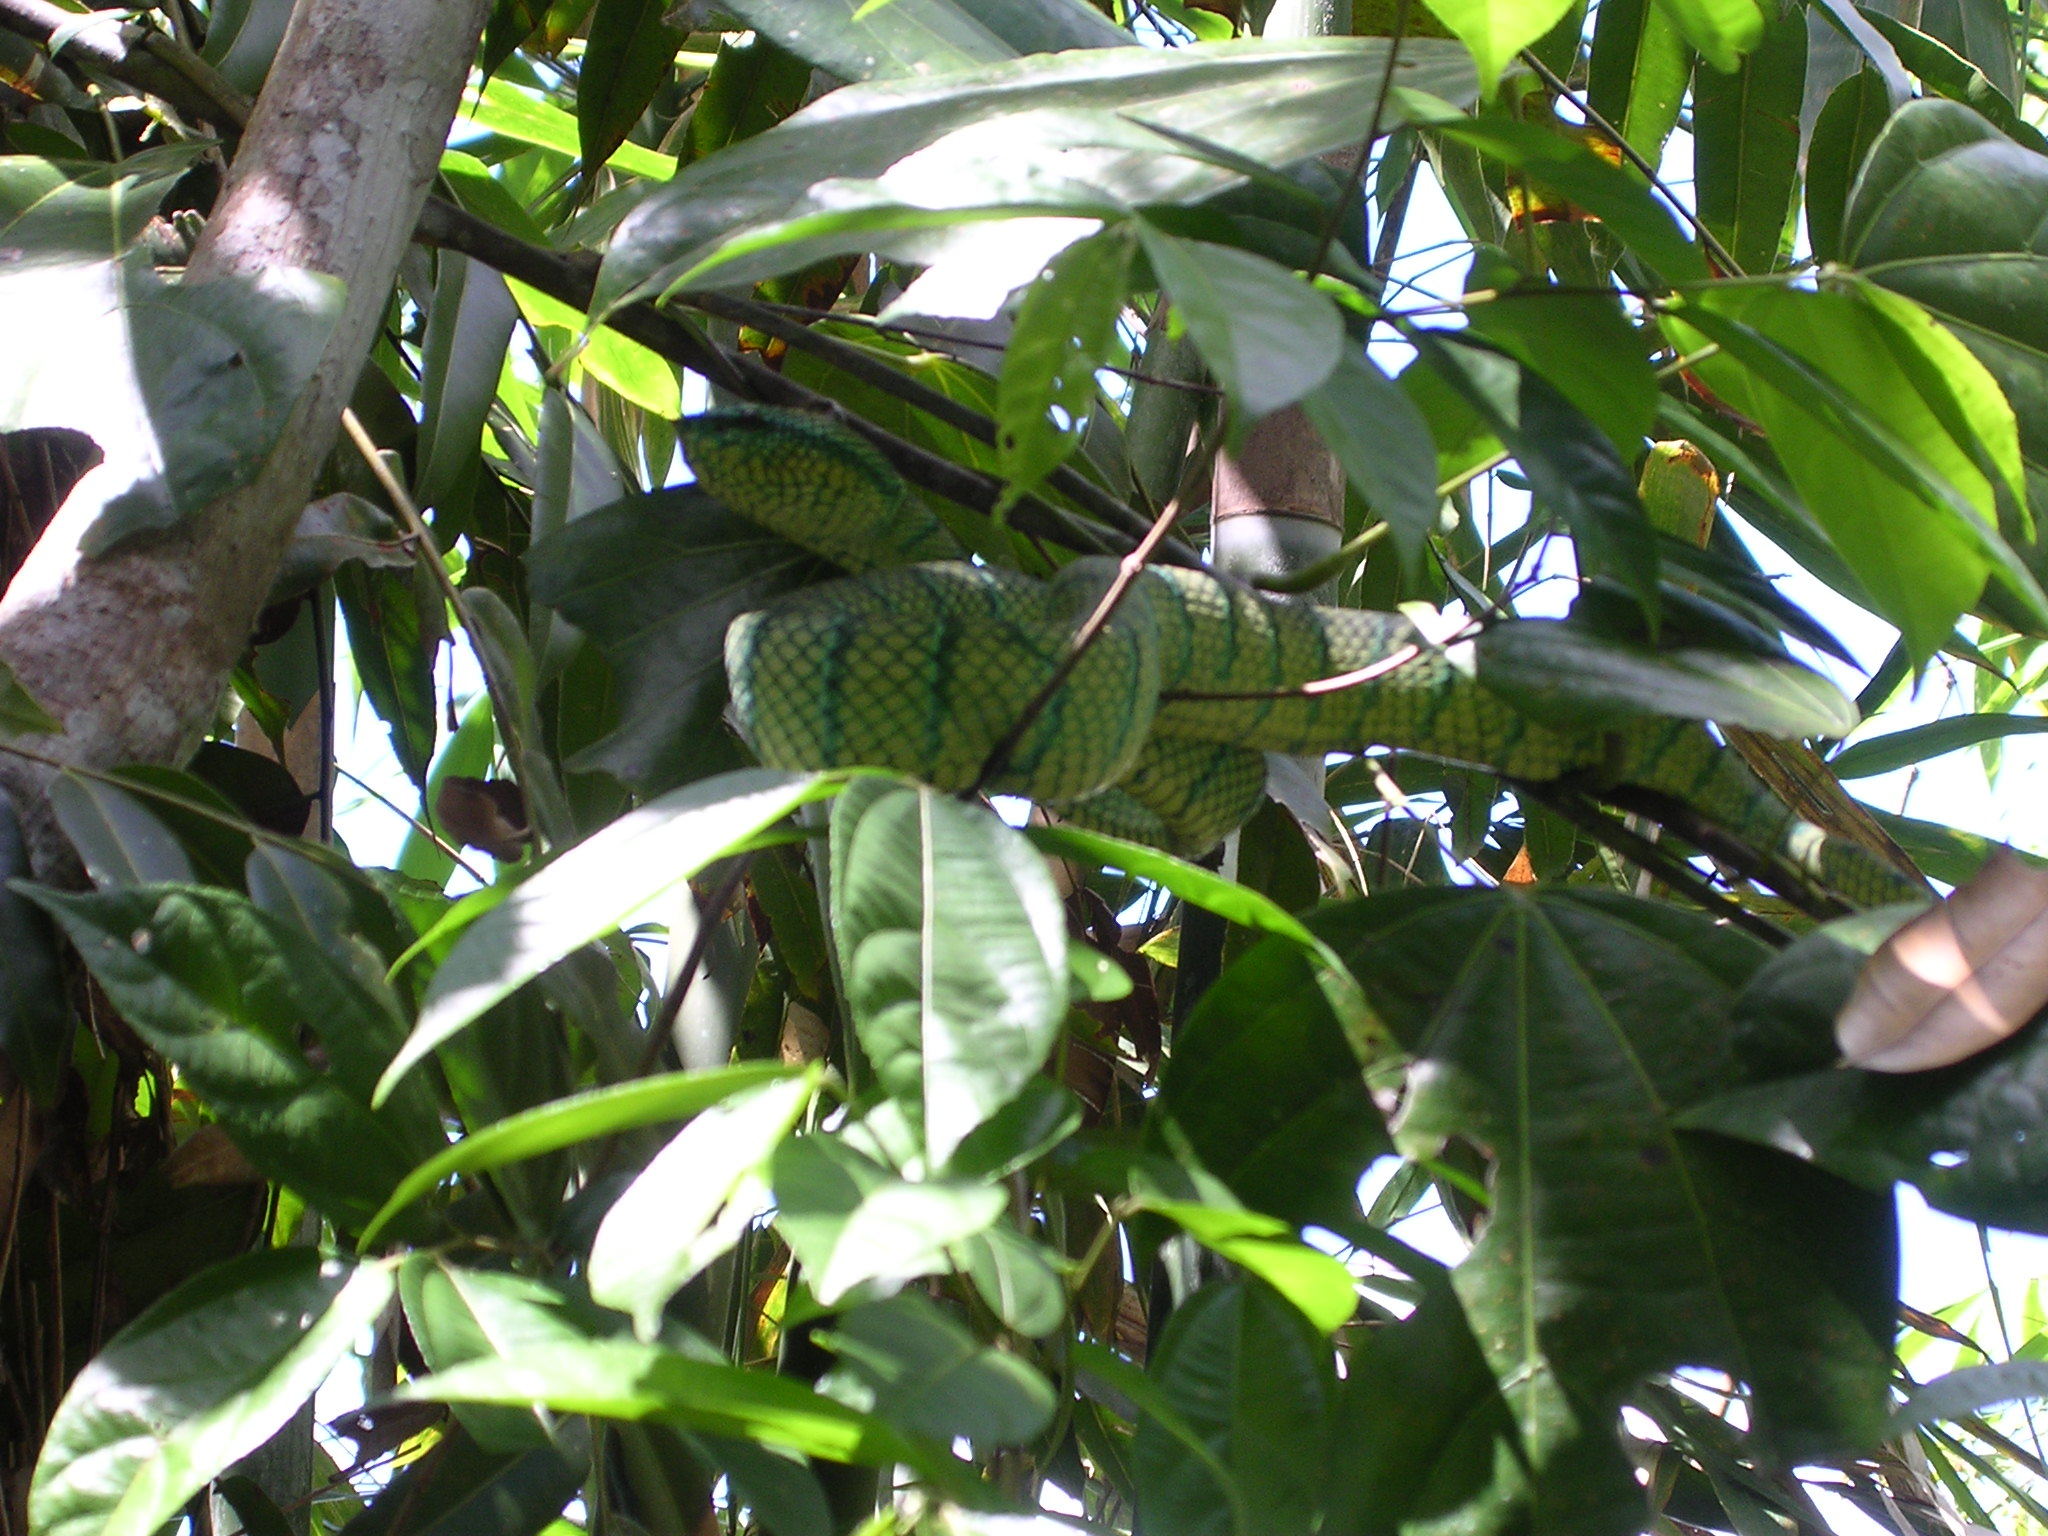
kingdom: Animalia
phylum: Chordata
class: Squamata
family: Viperidae
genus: Tropidolaemus
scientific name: Tropidolaemus subannulatus
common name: North philippine temple pitviper
